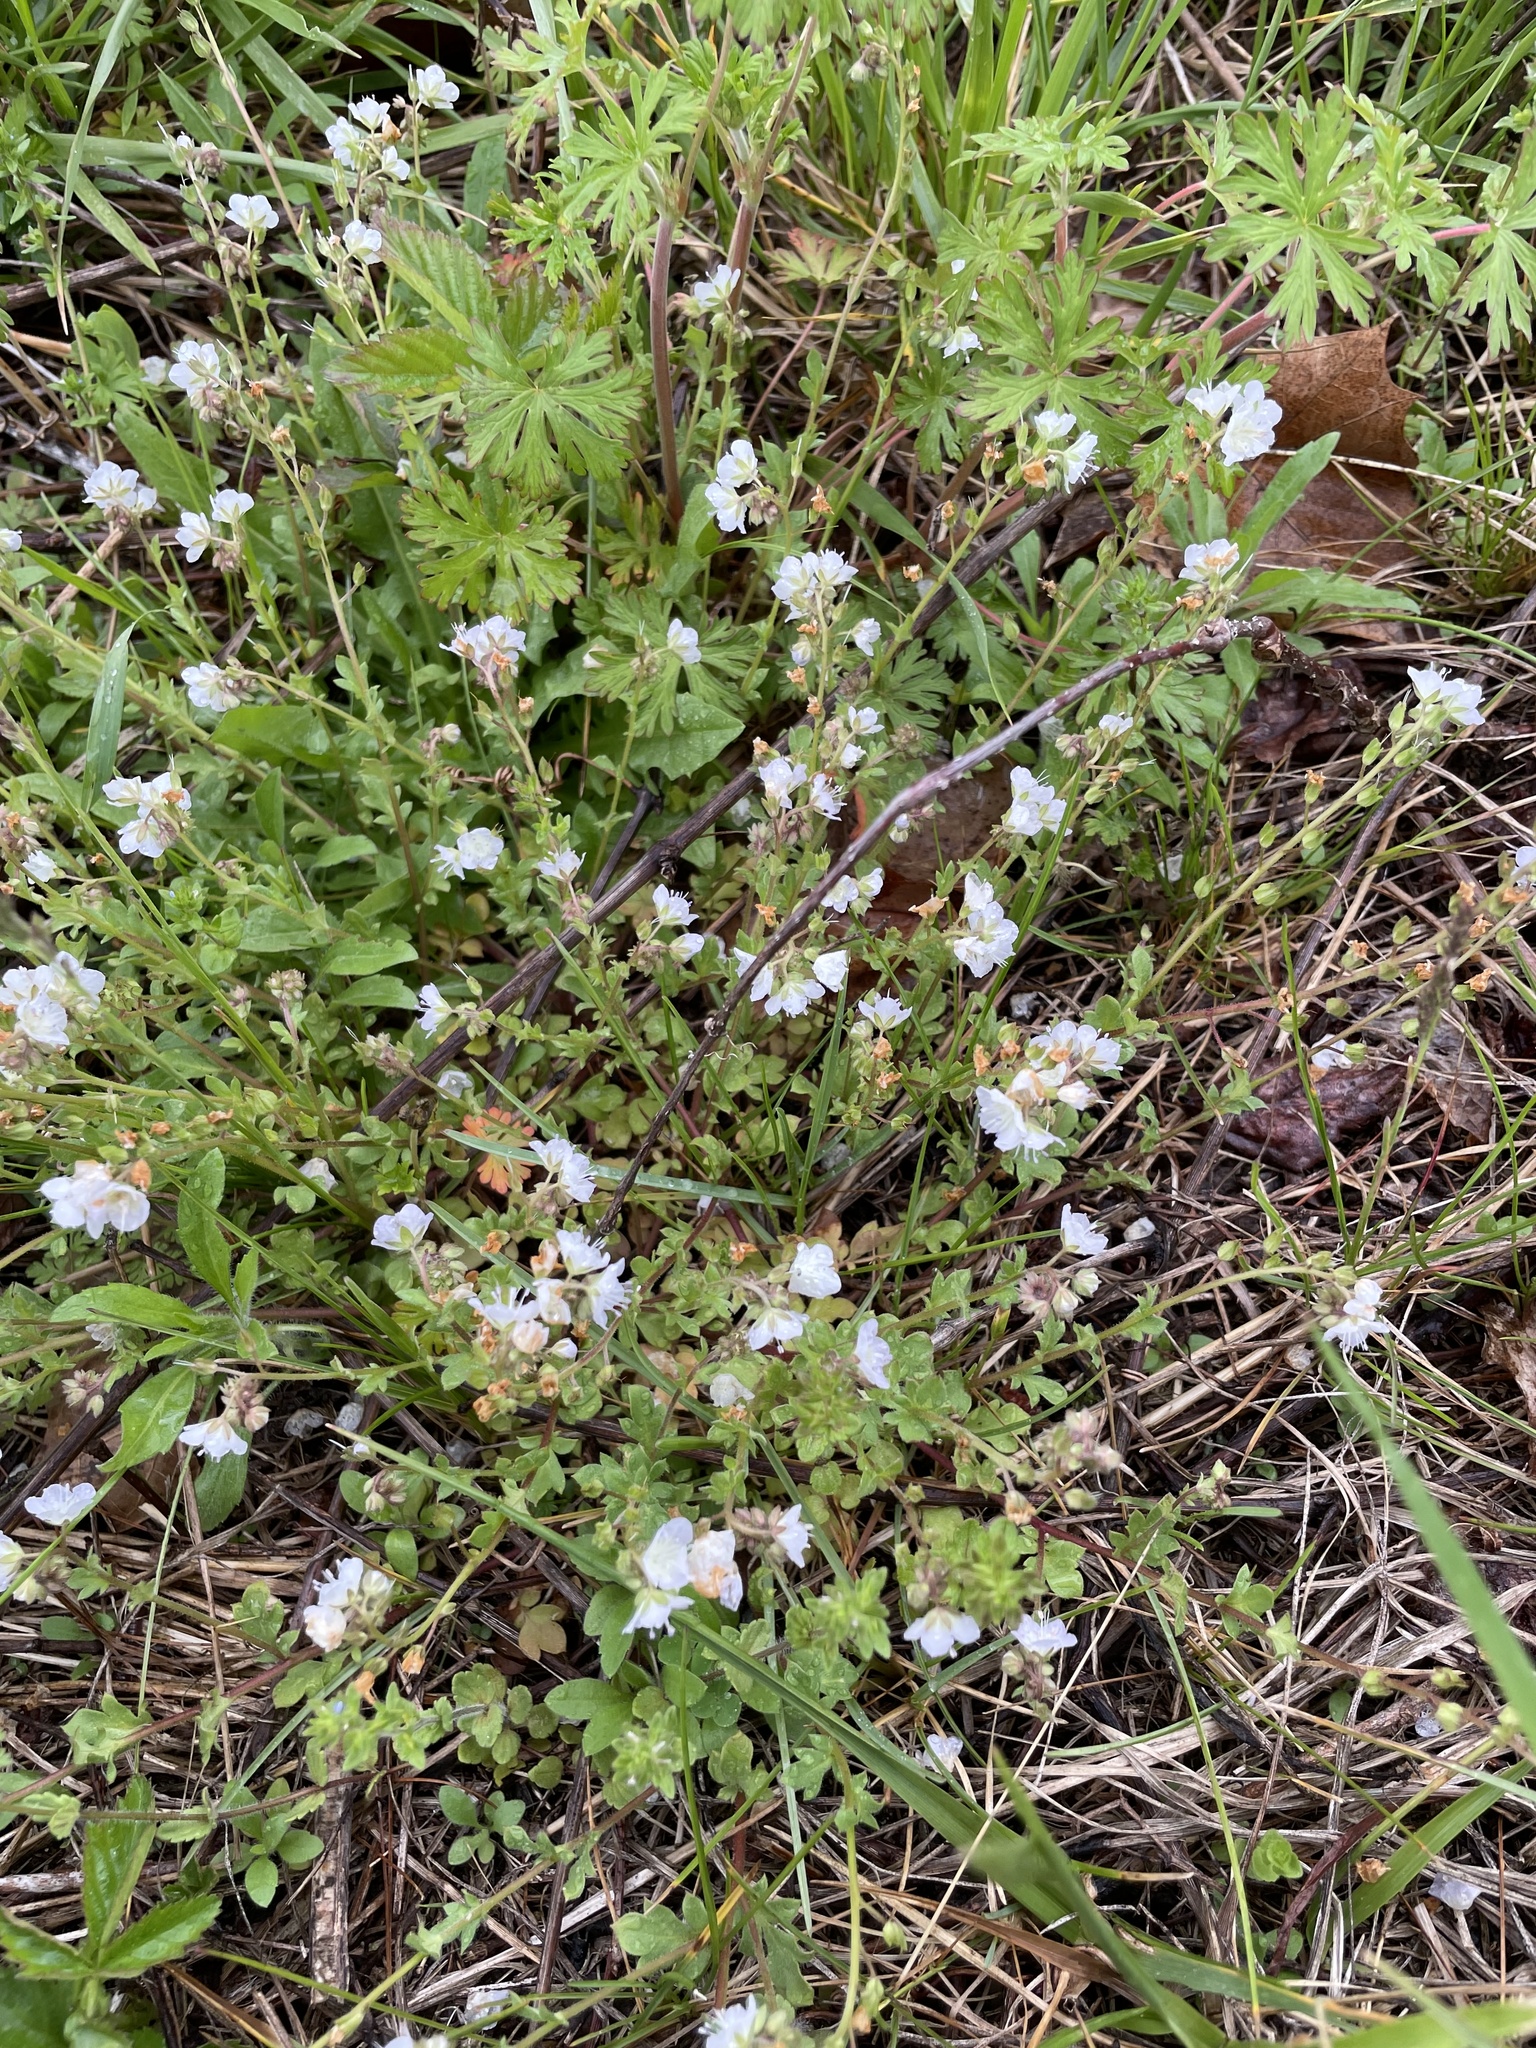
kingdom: Plantae
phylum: Tracheophyta
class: Magnoliopsida
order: Boraginales
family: Hydrophyllaceae
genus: Phacelia
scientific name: Phacelia dubia
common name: Appalachian phacelia
